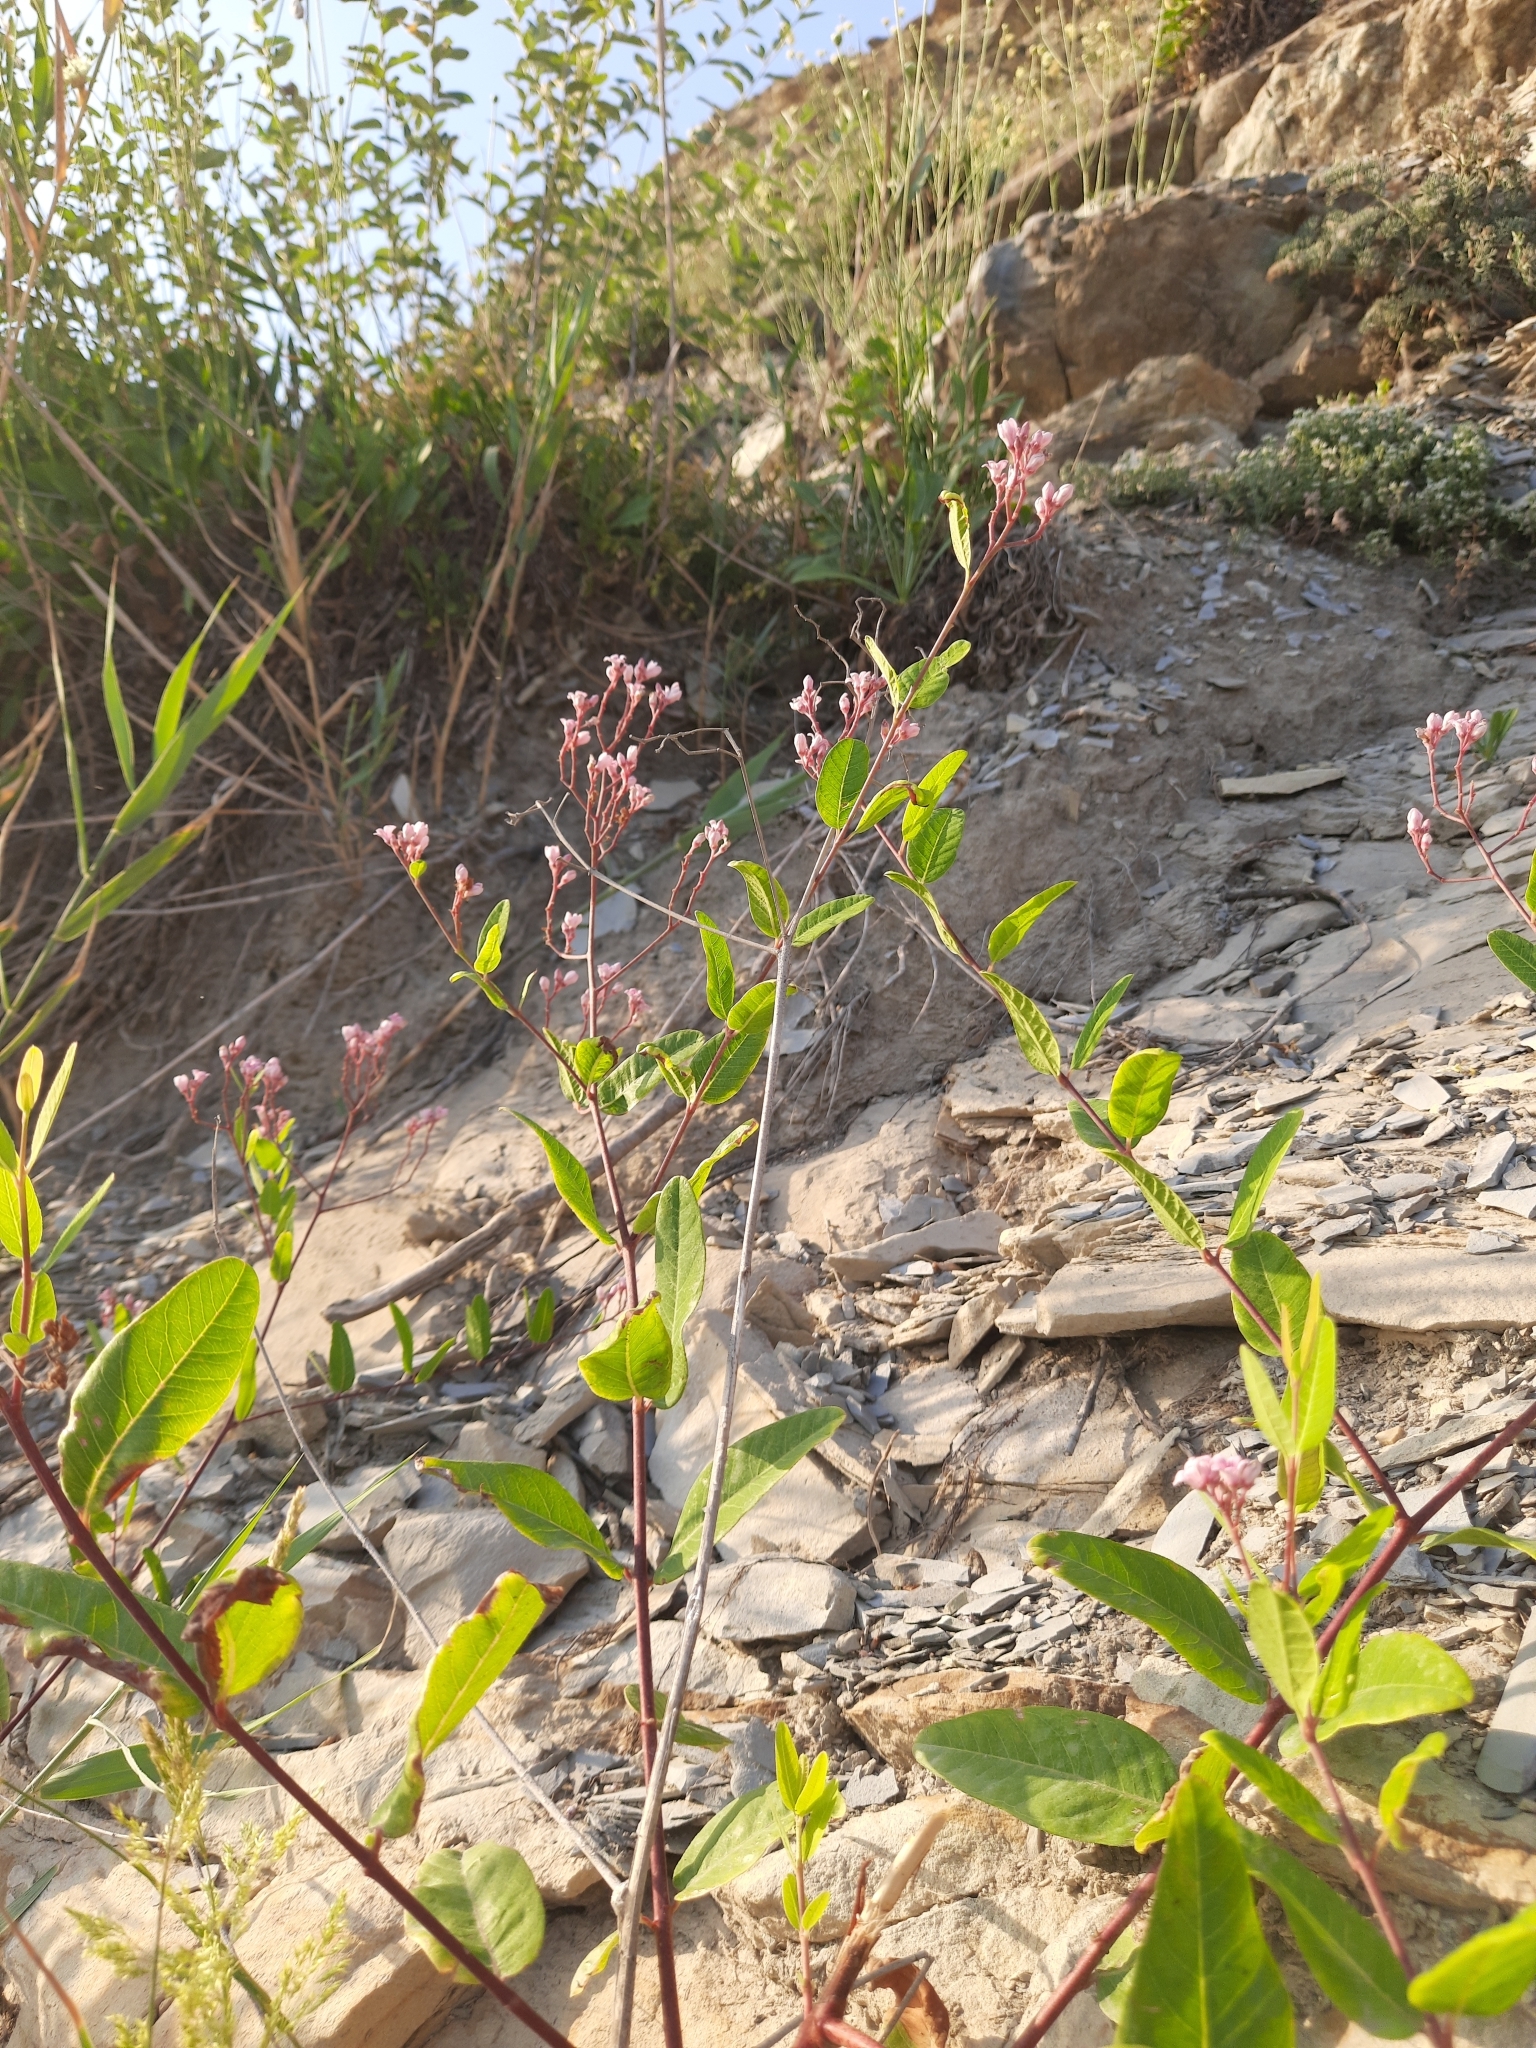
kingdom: Plantae
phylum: Tracheophyta
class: Magnoliopsida
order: Gentianales
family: Apocynaceae
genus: Poacynum
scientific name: Poacynum venetum
